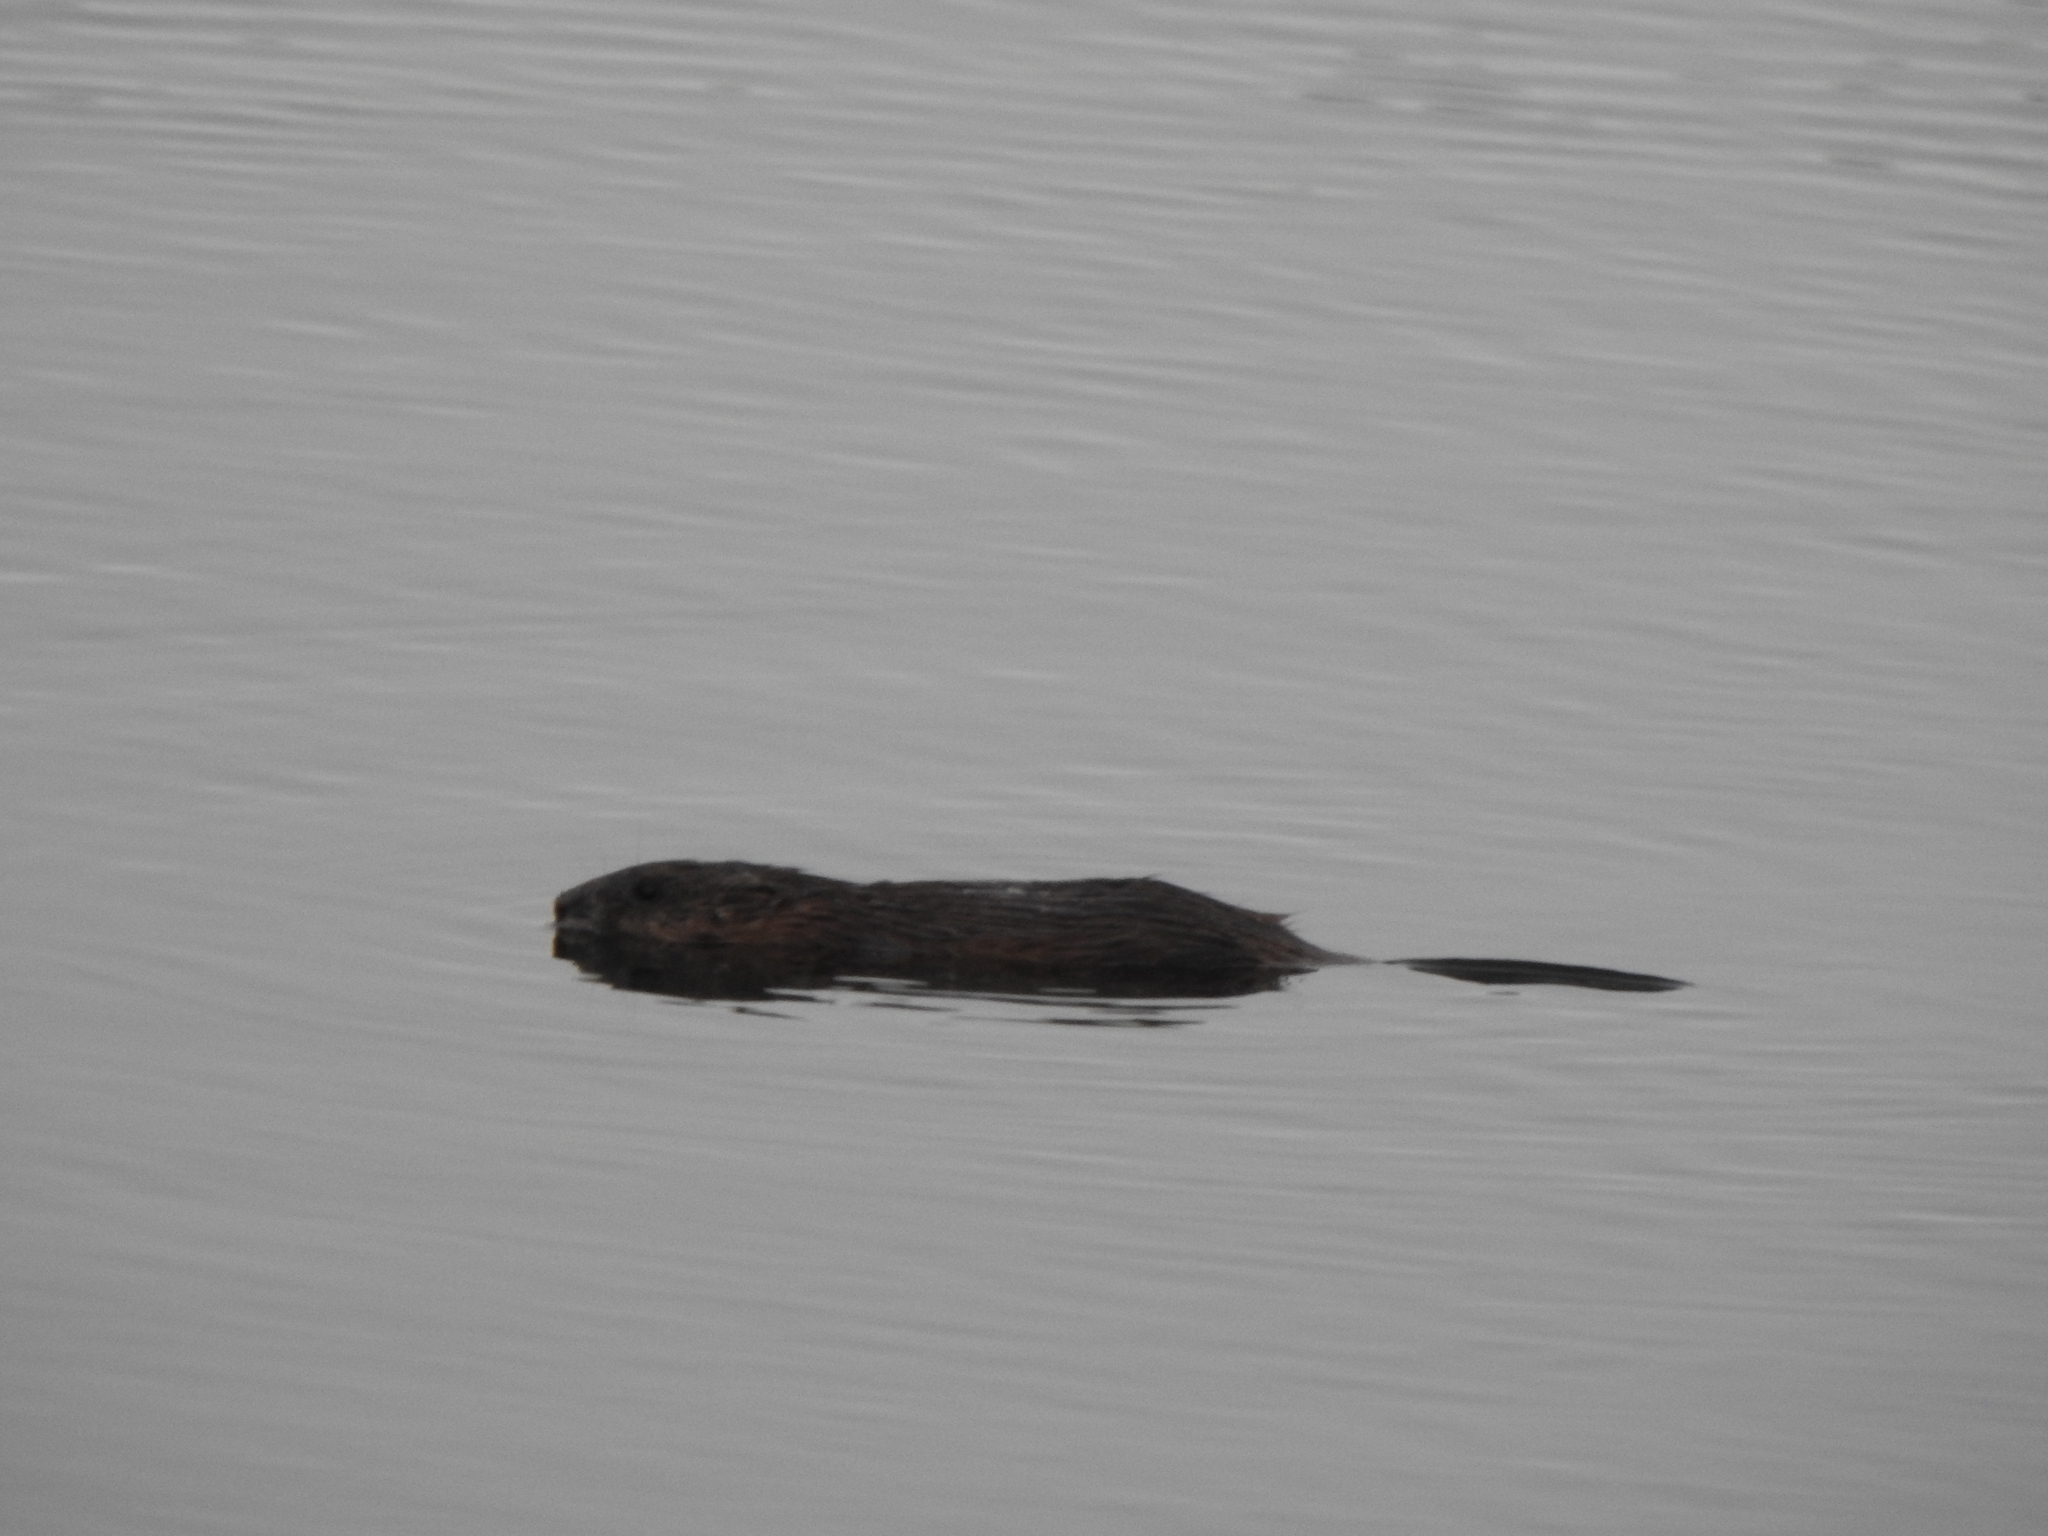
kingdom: Animalia
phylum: Chordata
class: Mammalia
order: Rodentia
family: Cricetidae
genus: Ondatra
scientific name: Ondatra zibethicus
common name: Muskrat
